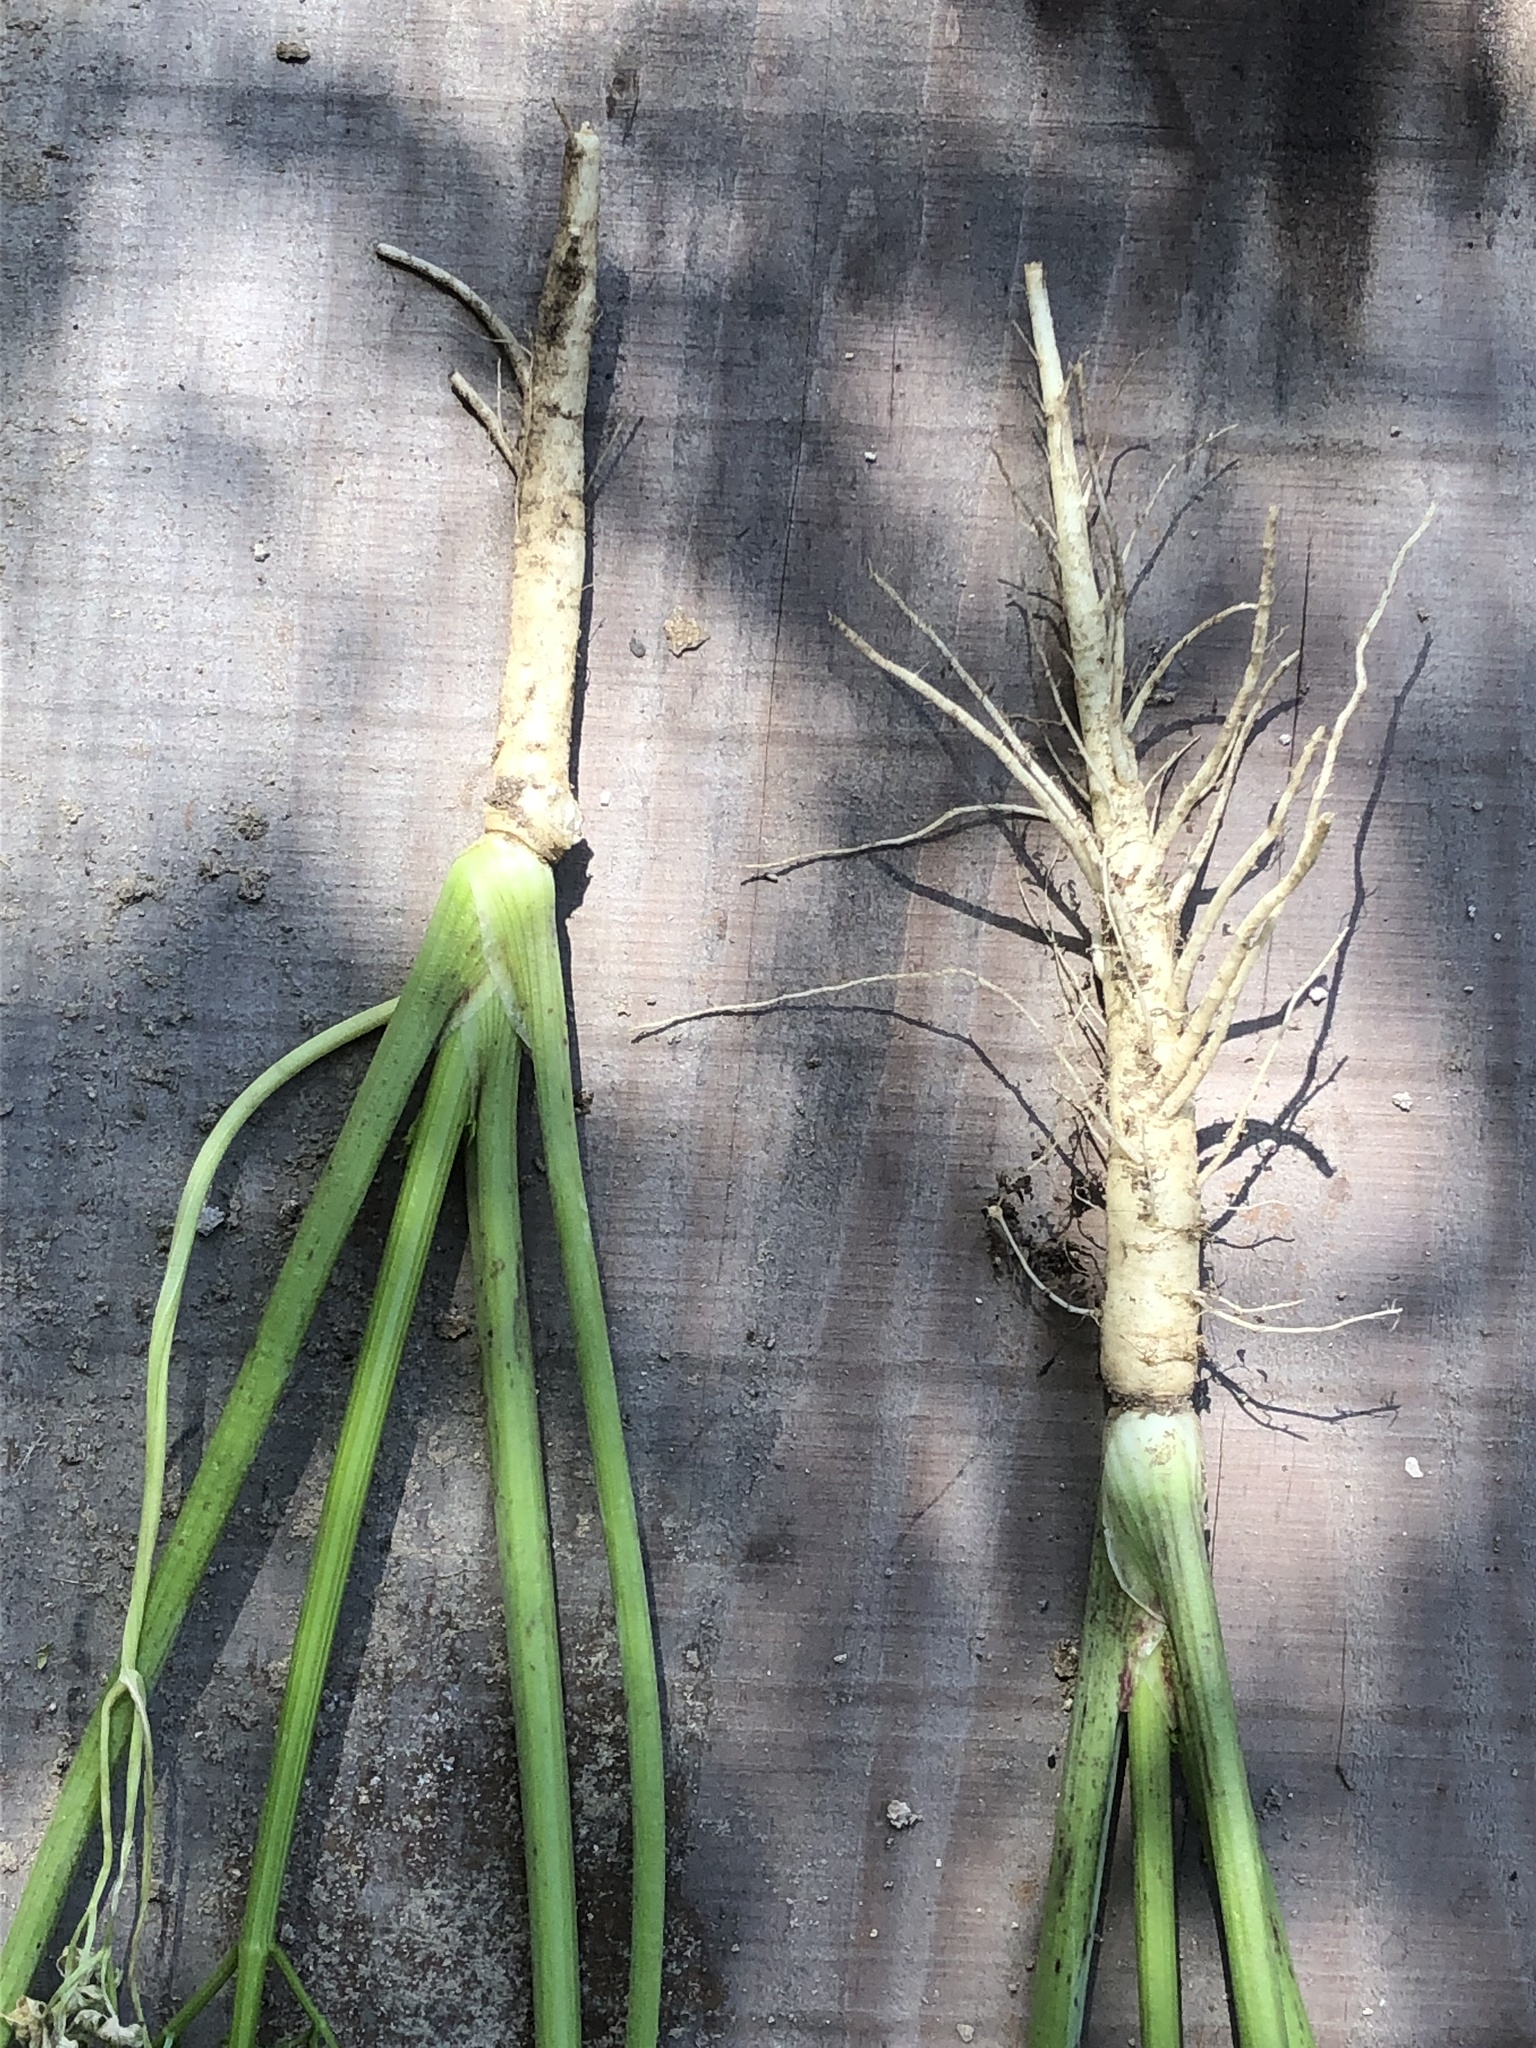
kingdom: Plantae
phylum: Tracheophyta
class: Magnoliopsida
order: Apiales
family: Apiaceae
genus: Conium
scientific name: Conium maculatum
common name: Hemlock
